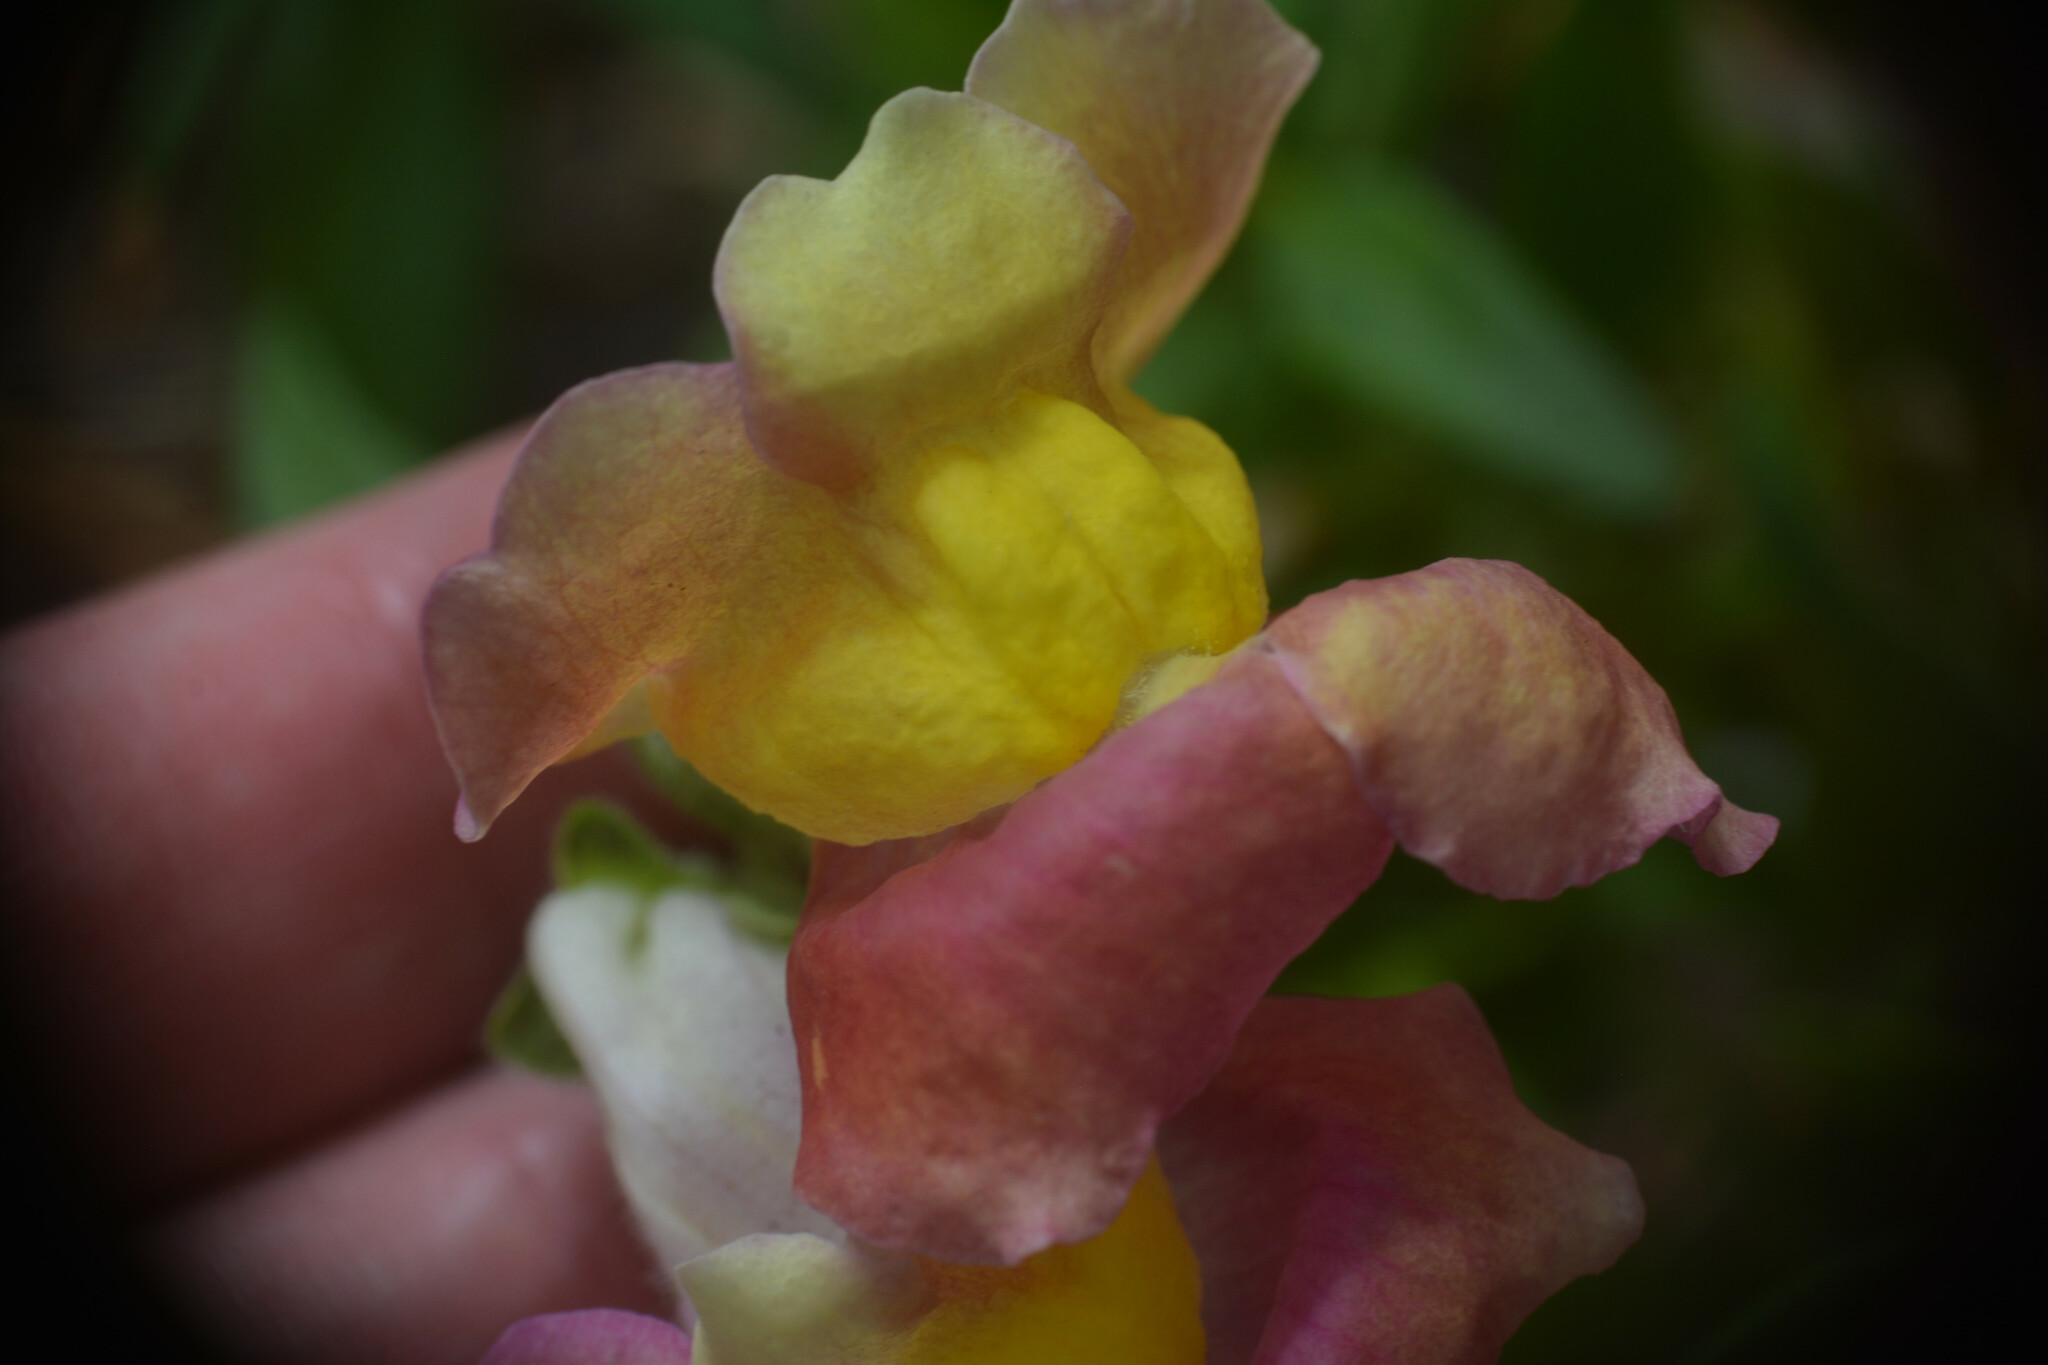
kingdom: Plantae
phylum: Tracheophyta
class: Magnoliopsida
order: Lamiales
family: Plantaginaceae
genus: Antirrhinum
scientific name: Antirrhinum majus
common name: Snapdragon
